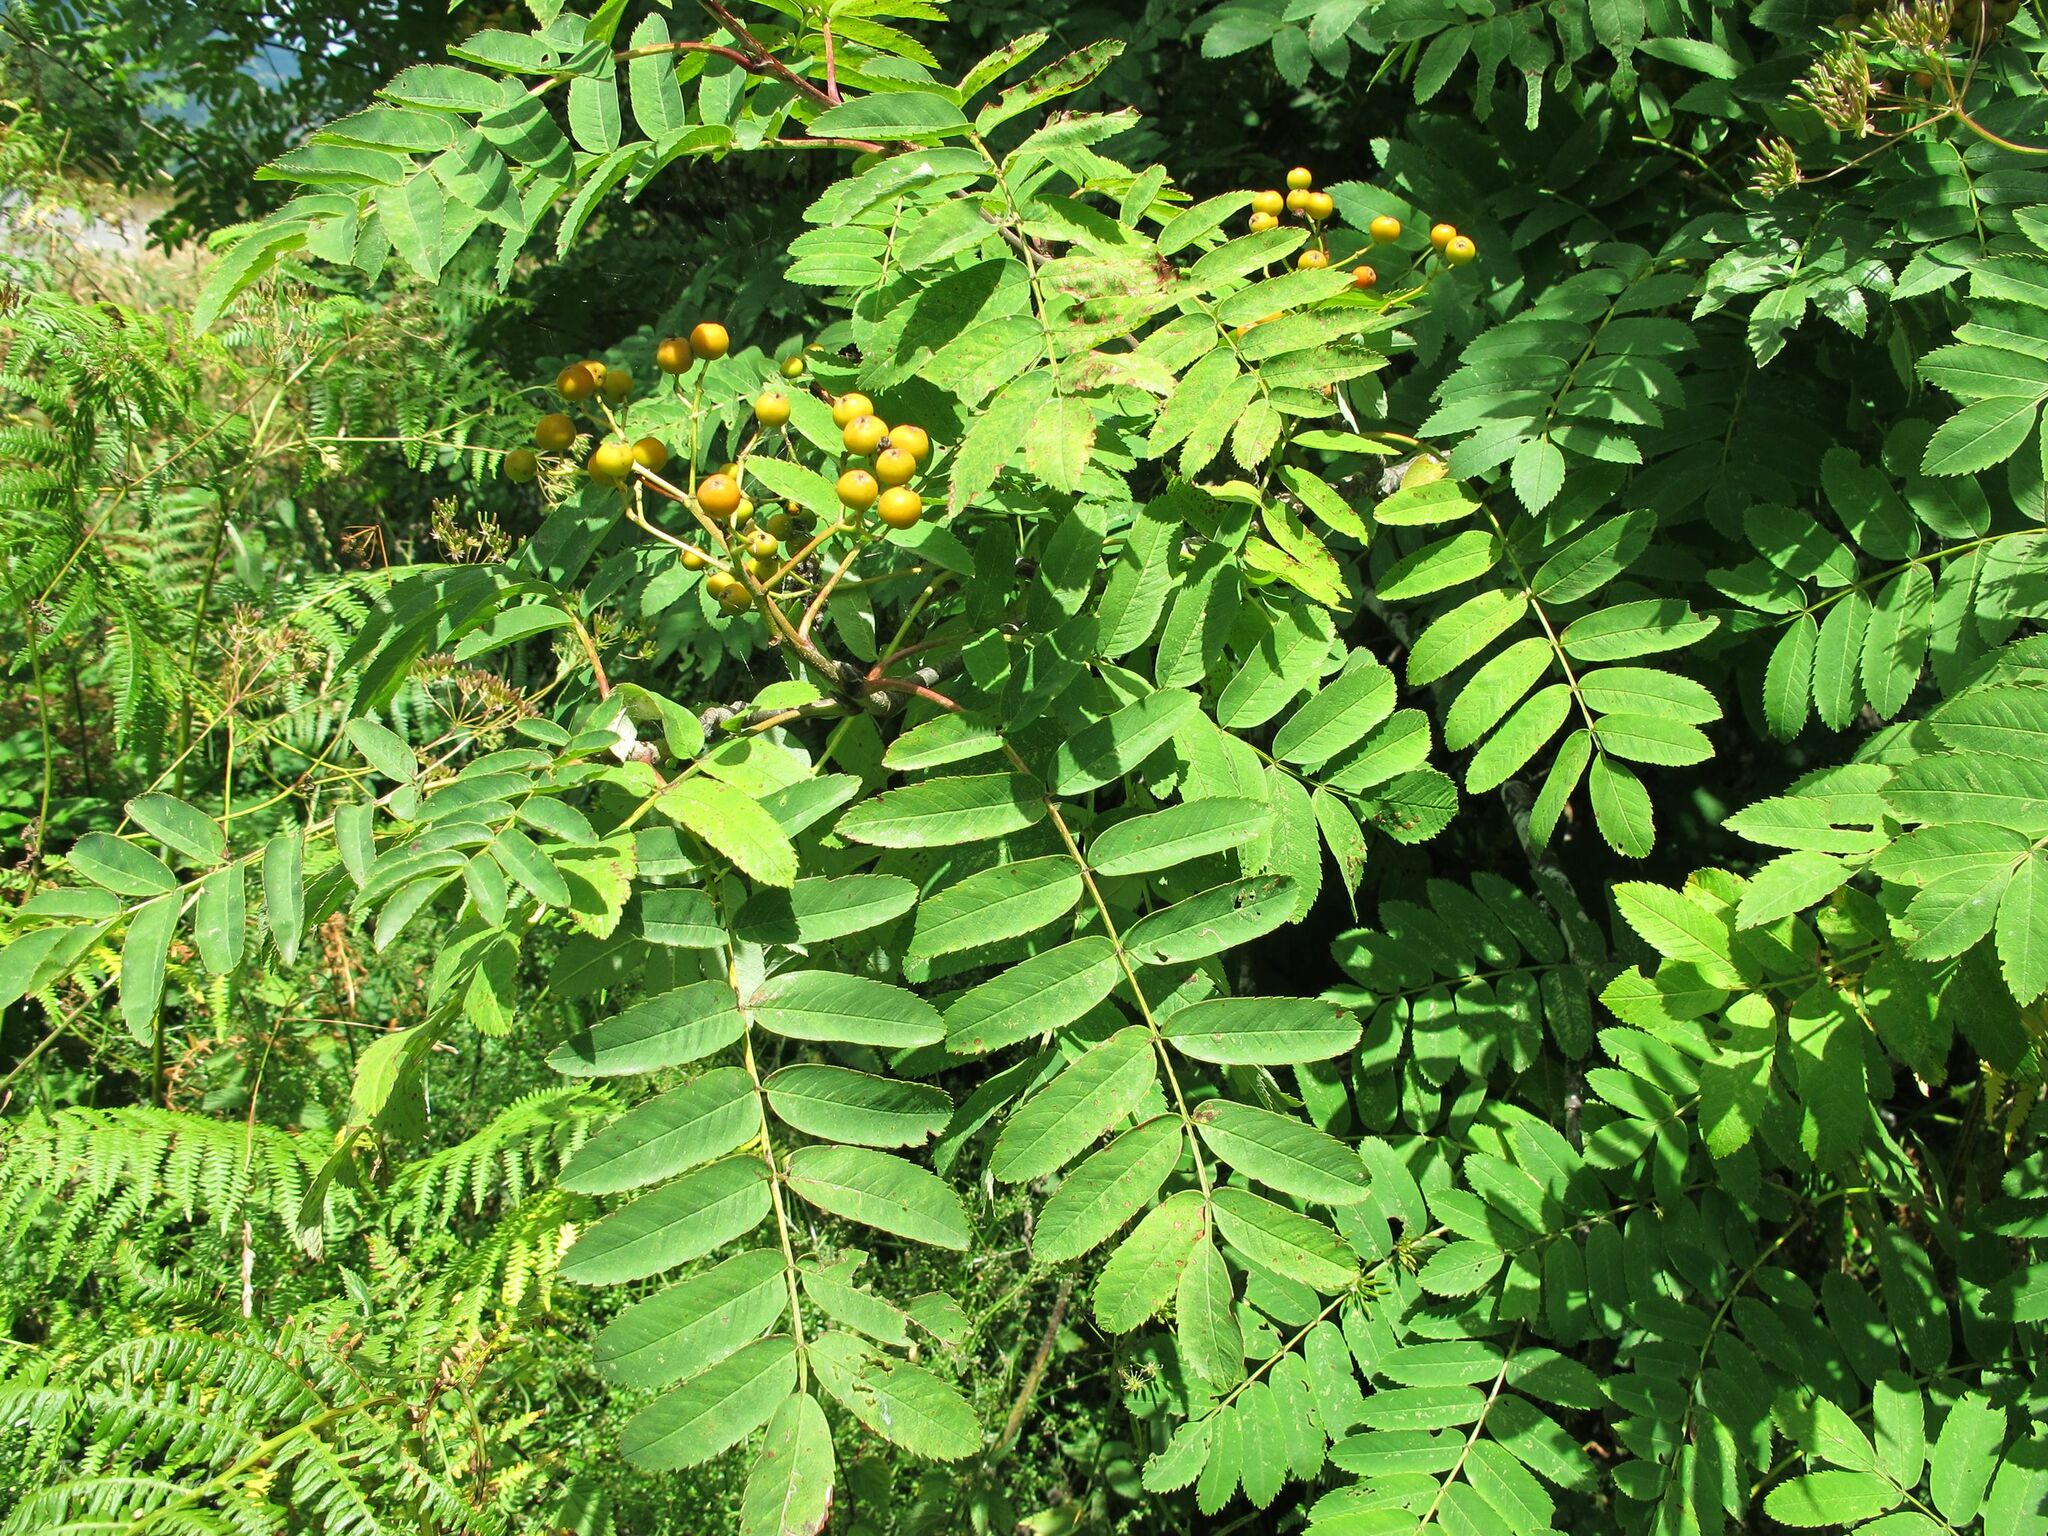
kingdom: Plantae
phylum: Tracheophyta
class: Magnoliopsida
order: Rosales
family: Rosaceae
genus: Sorbus
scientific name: Sorbus aucuparia
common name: Rowan
